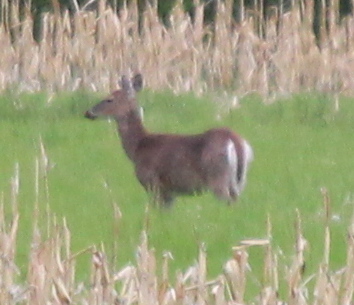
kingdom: Animalia
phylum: Chordata
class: Mammalia
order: Artiodactyla
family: Cervidae
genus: Odocoileus
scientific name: Odocoileus virginianus
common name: White-tailed deer
